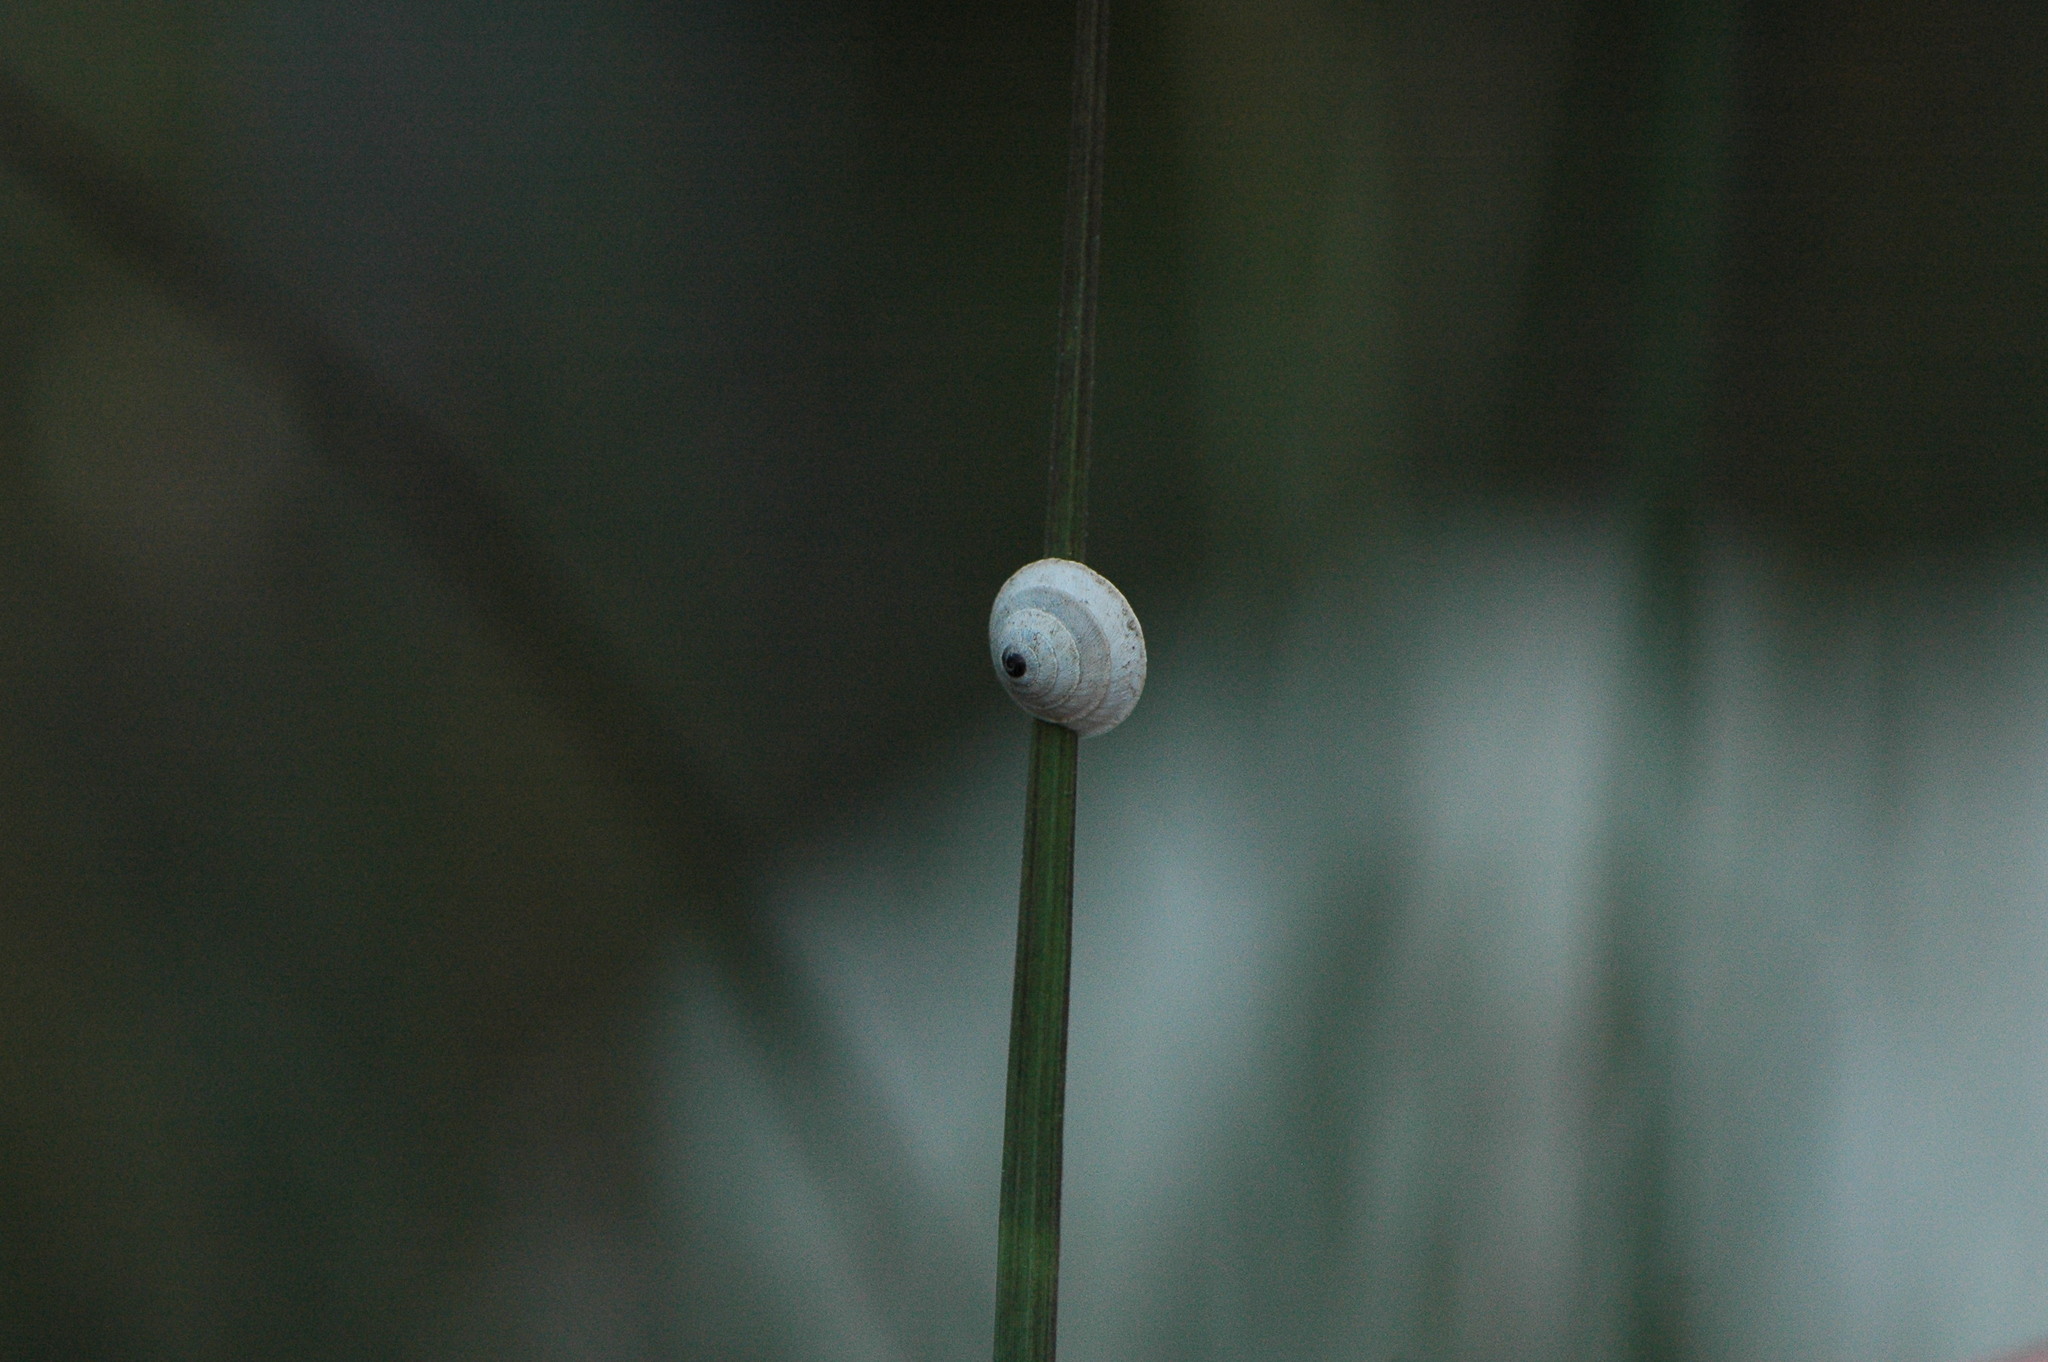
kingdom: Animalia
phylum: Mollusca
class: Gastropoda
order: Stylommatophora
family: Geomitridae
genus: Trochoidea
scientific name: Trochoidea elegans
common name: Elegant helicellid
